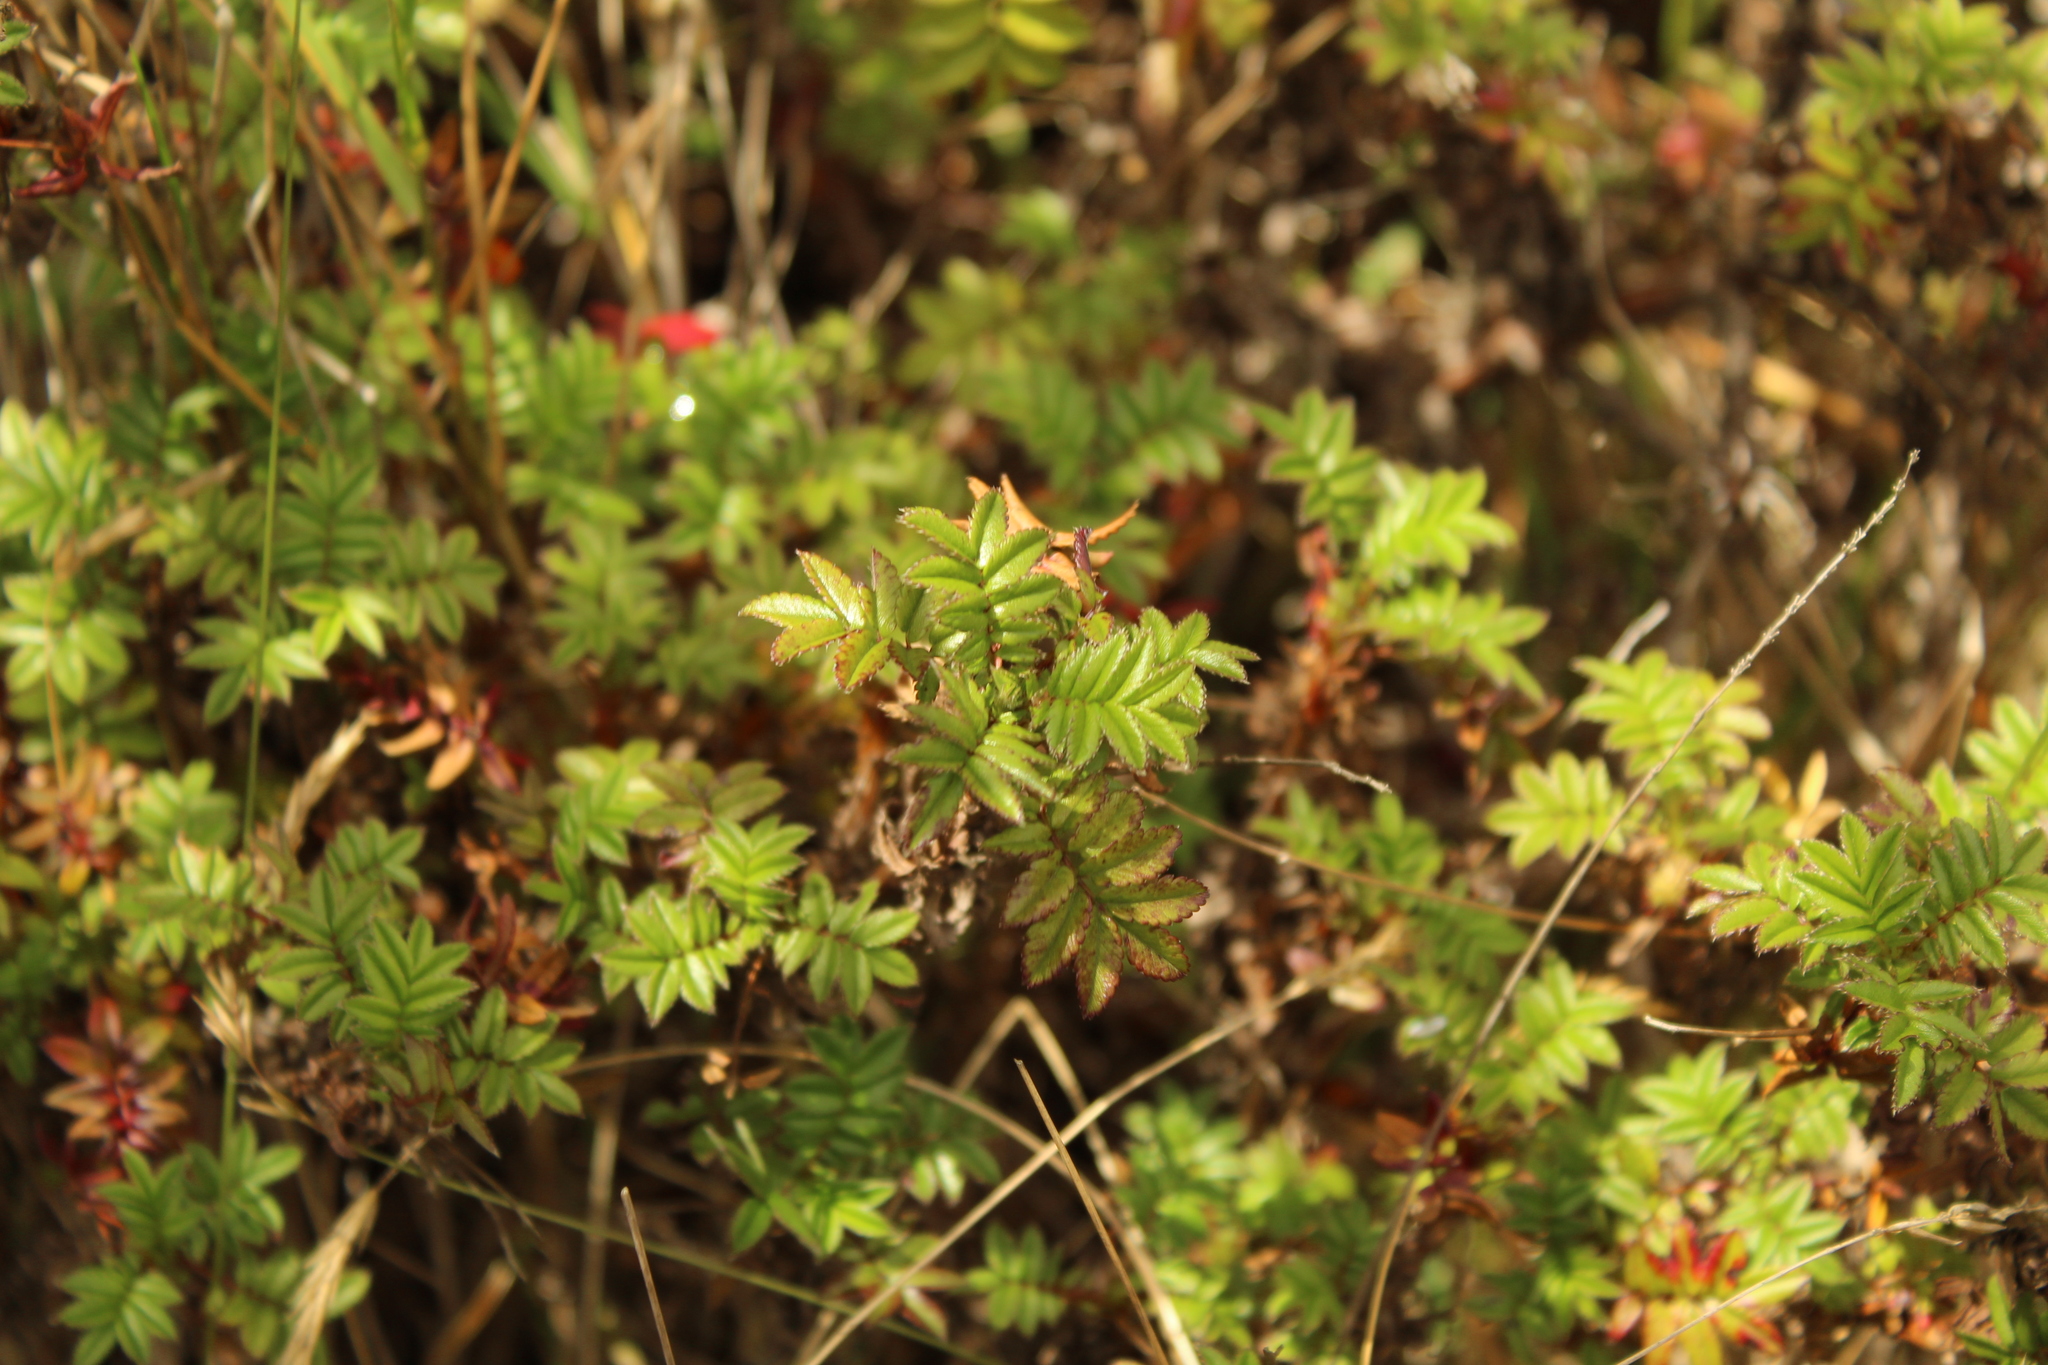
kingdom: Plantae
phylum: Tracheophyta
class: Magnoliopsida
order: Rosales
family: Rosaceae
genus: Acaena
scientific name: Acaena elongata
